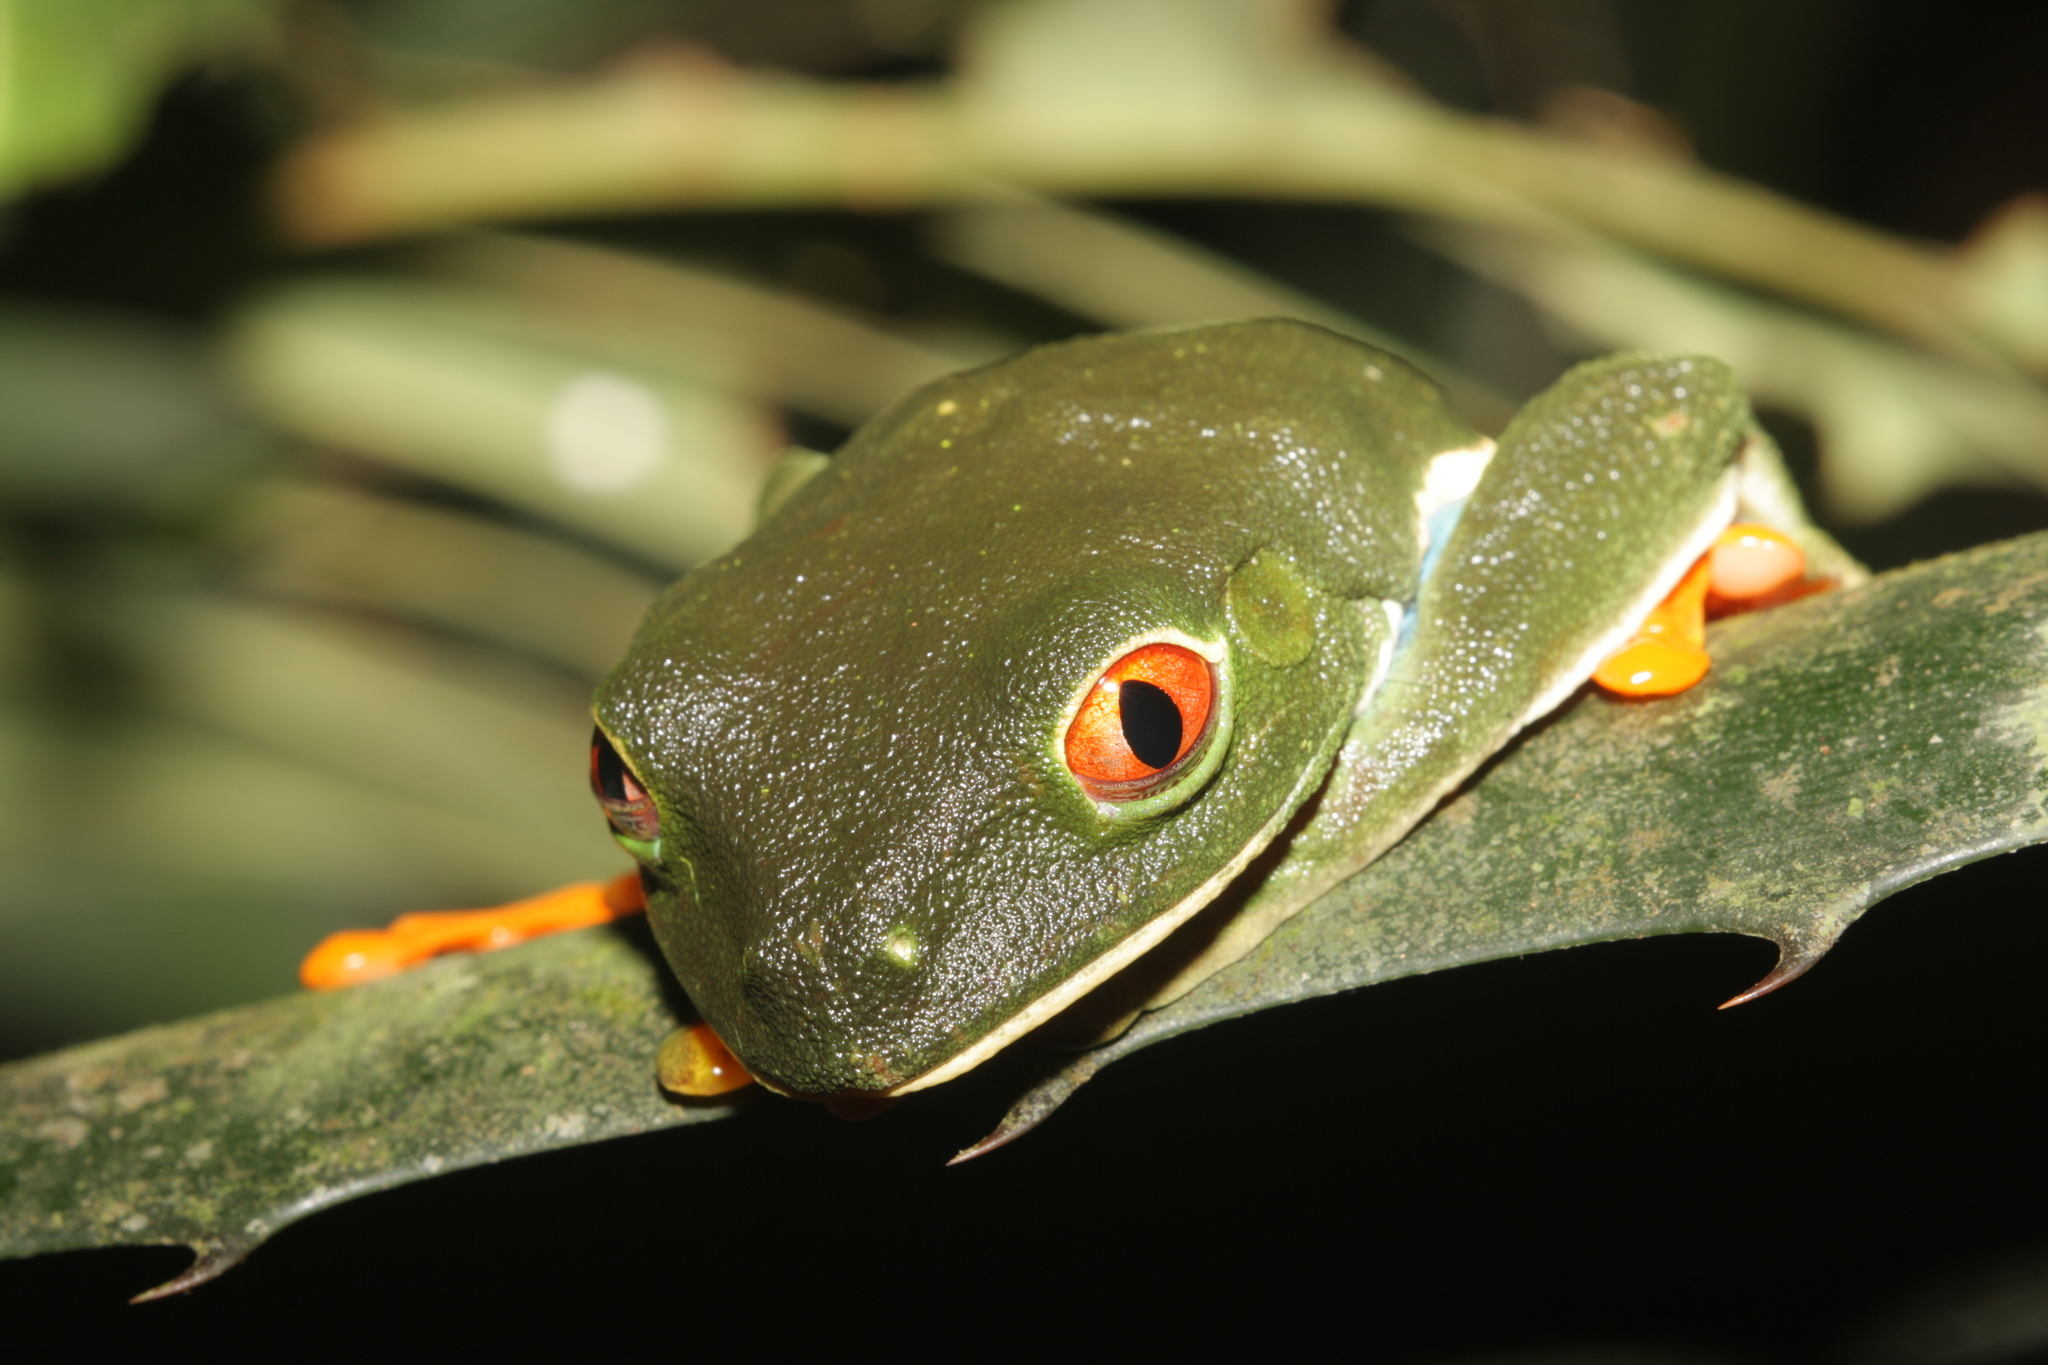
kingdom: Animalia
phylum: Chordata
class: Amphibia
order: Anura
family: Phyllomedusidae
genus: Agalychnis
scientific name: Agalychnis callidryas
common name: Red-eyed treefrog
